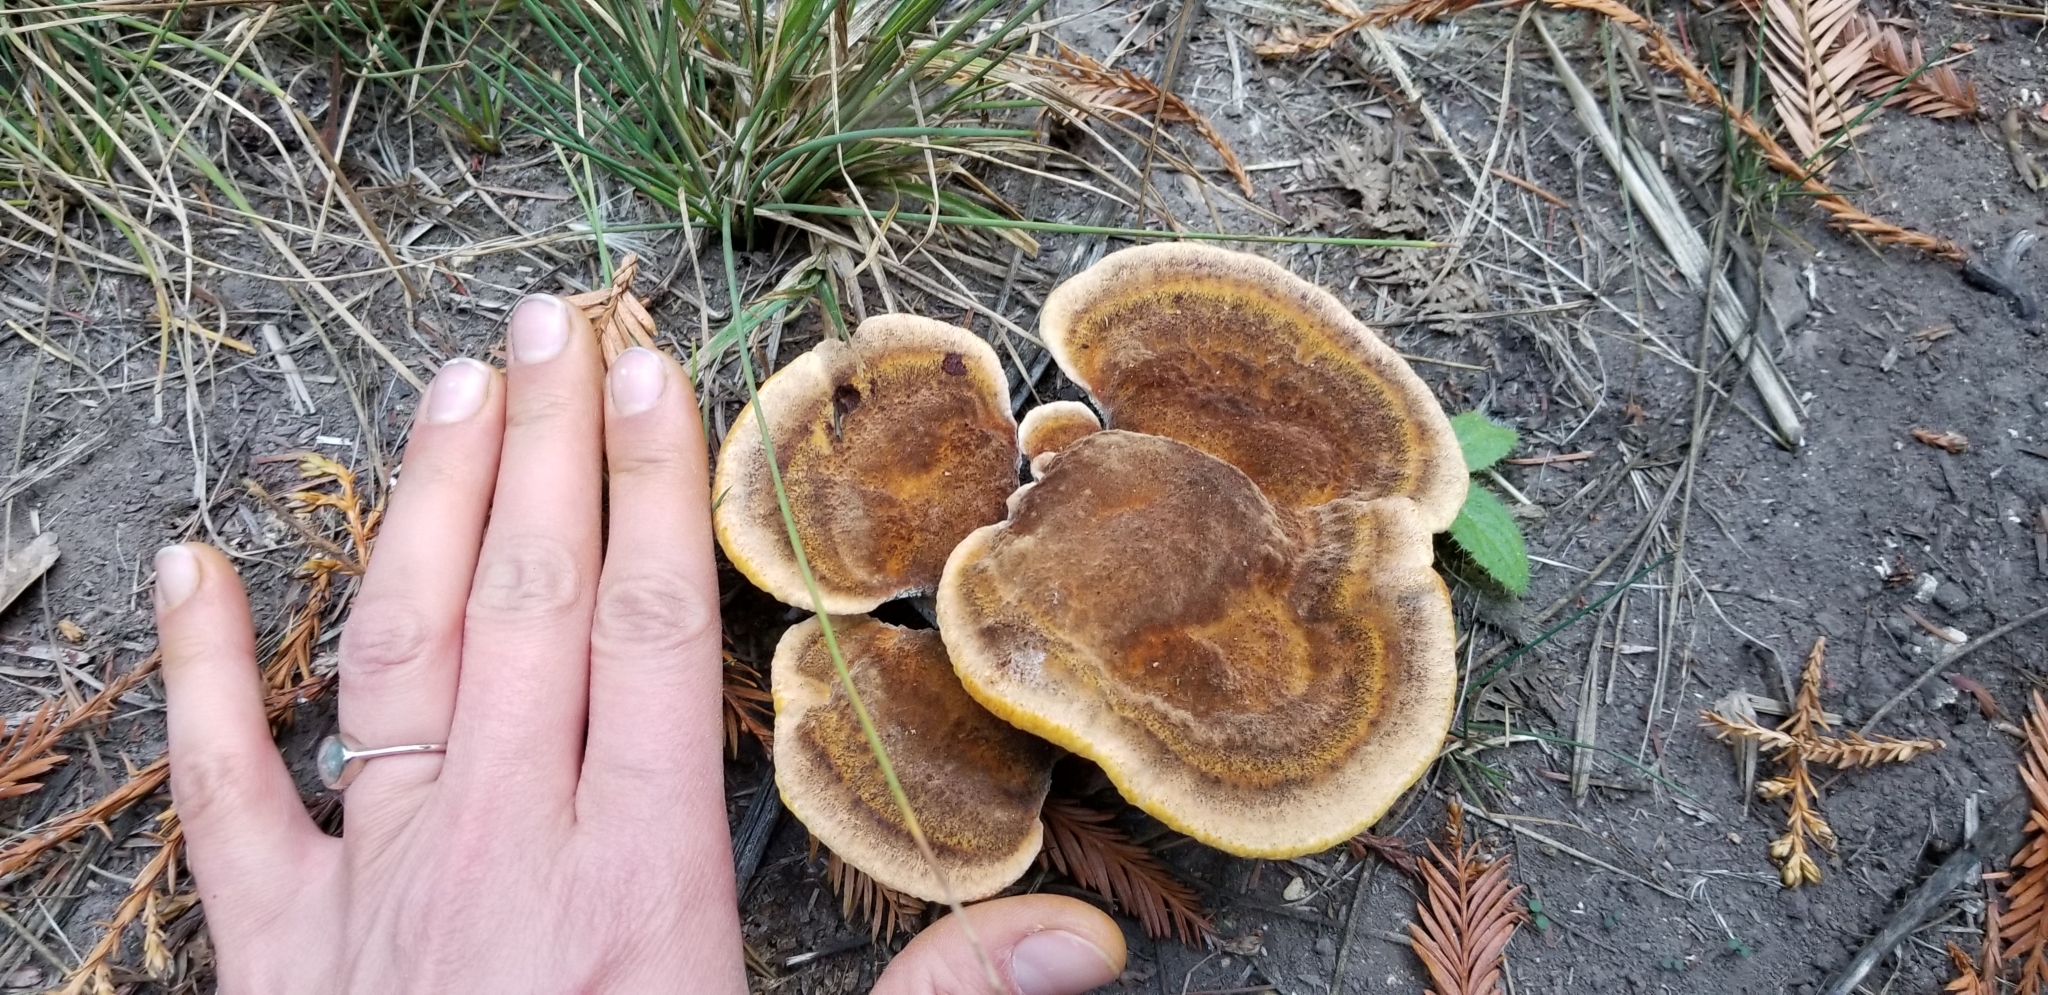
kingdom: Fungi
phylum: Basidiomycota
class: Agaricomycetes
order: Polyporales
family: Laetiporaceae
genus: Phaeolus
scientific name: Phaeolus schweinitzii
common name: Dyer's mazegill
